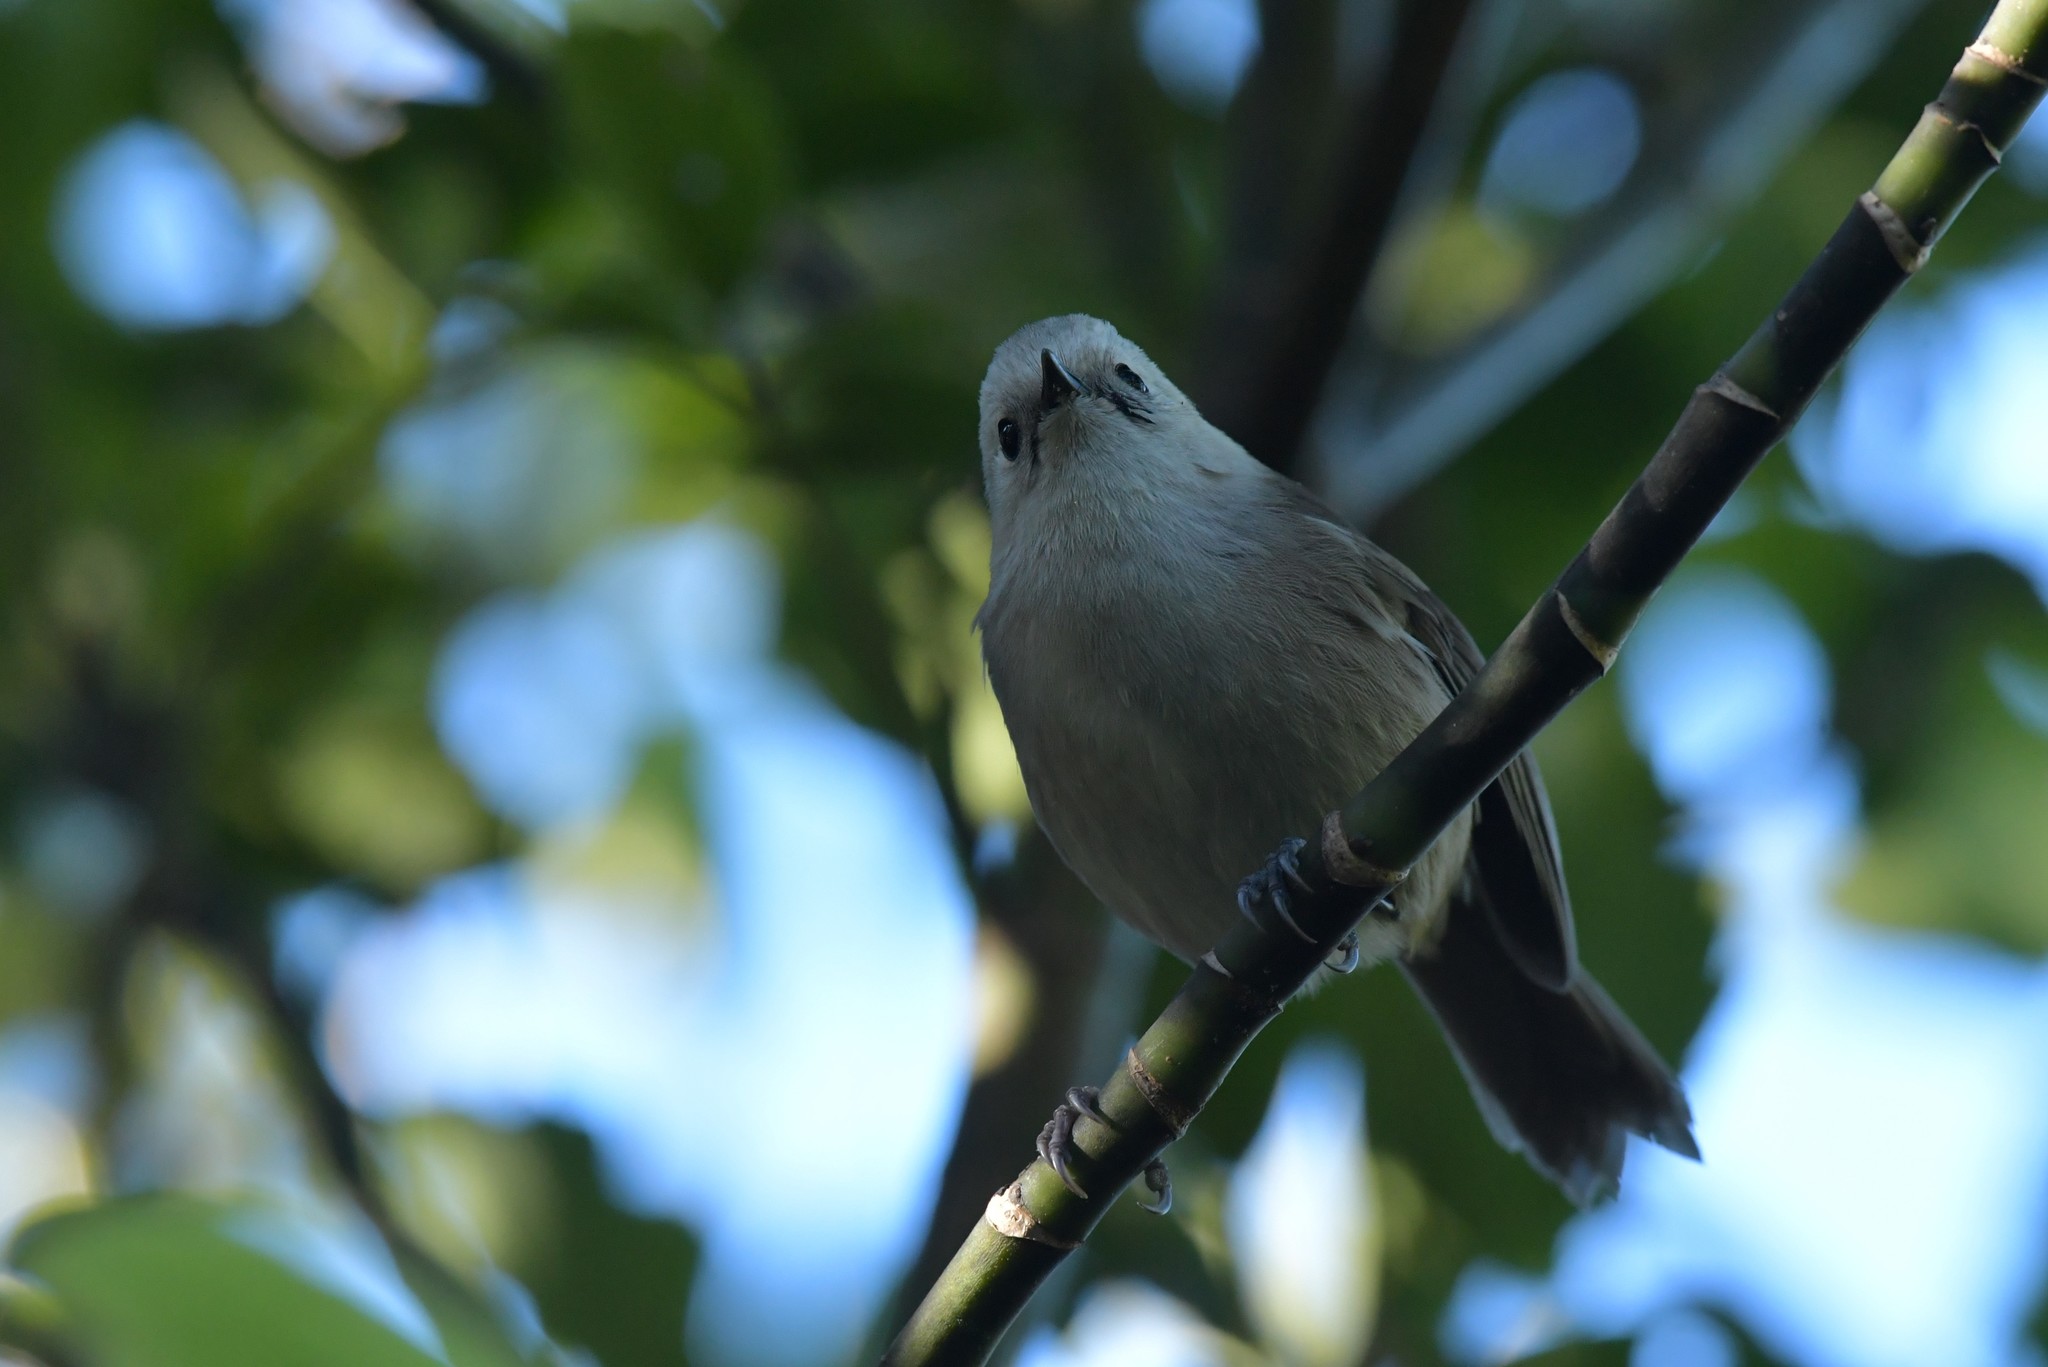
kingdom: Animalia
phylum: Chordata
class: Aves
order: Passeriformes
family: Acanthizidae
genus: Mohoua
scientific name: Mohoua albicilla
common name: Whitehead
